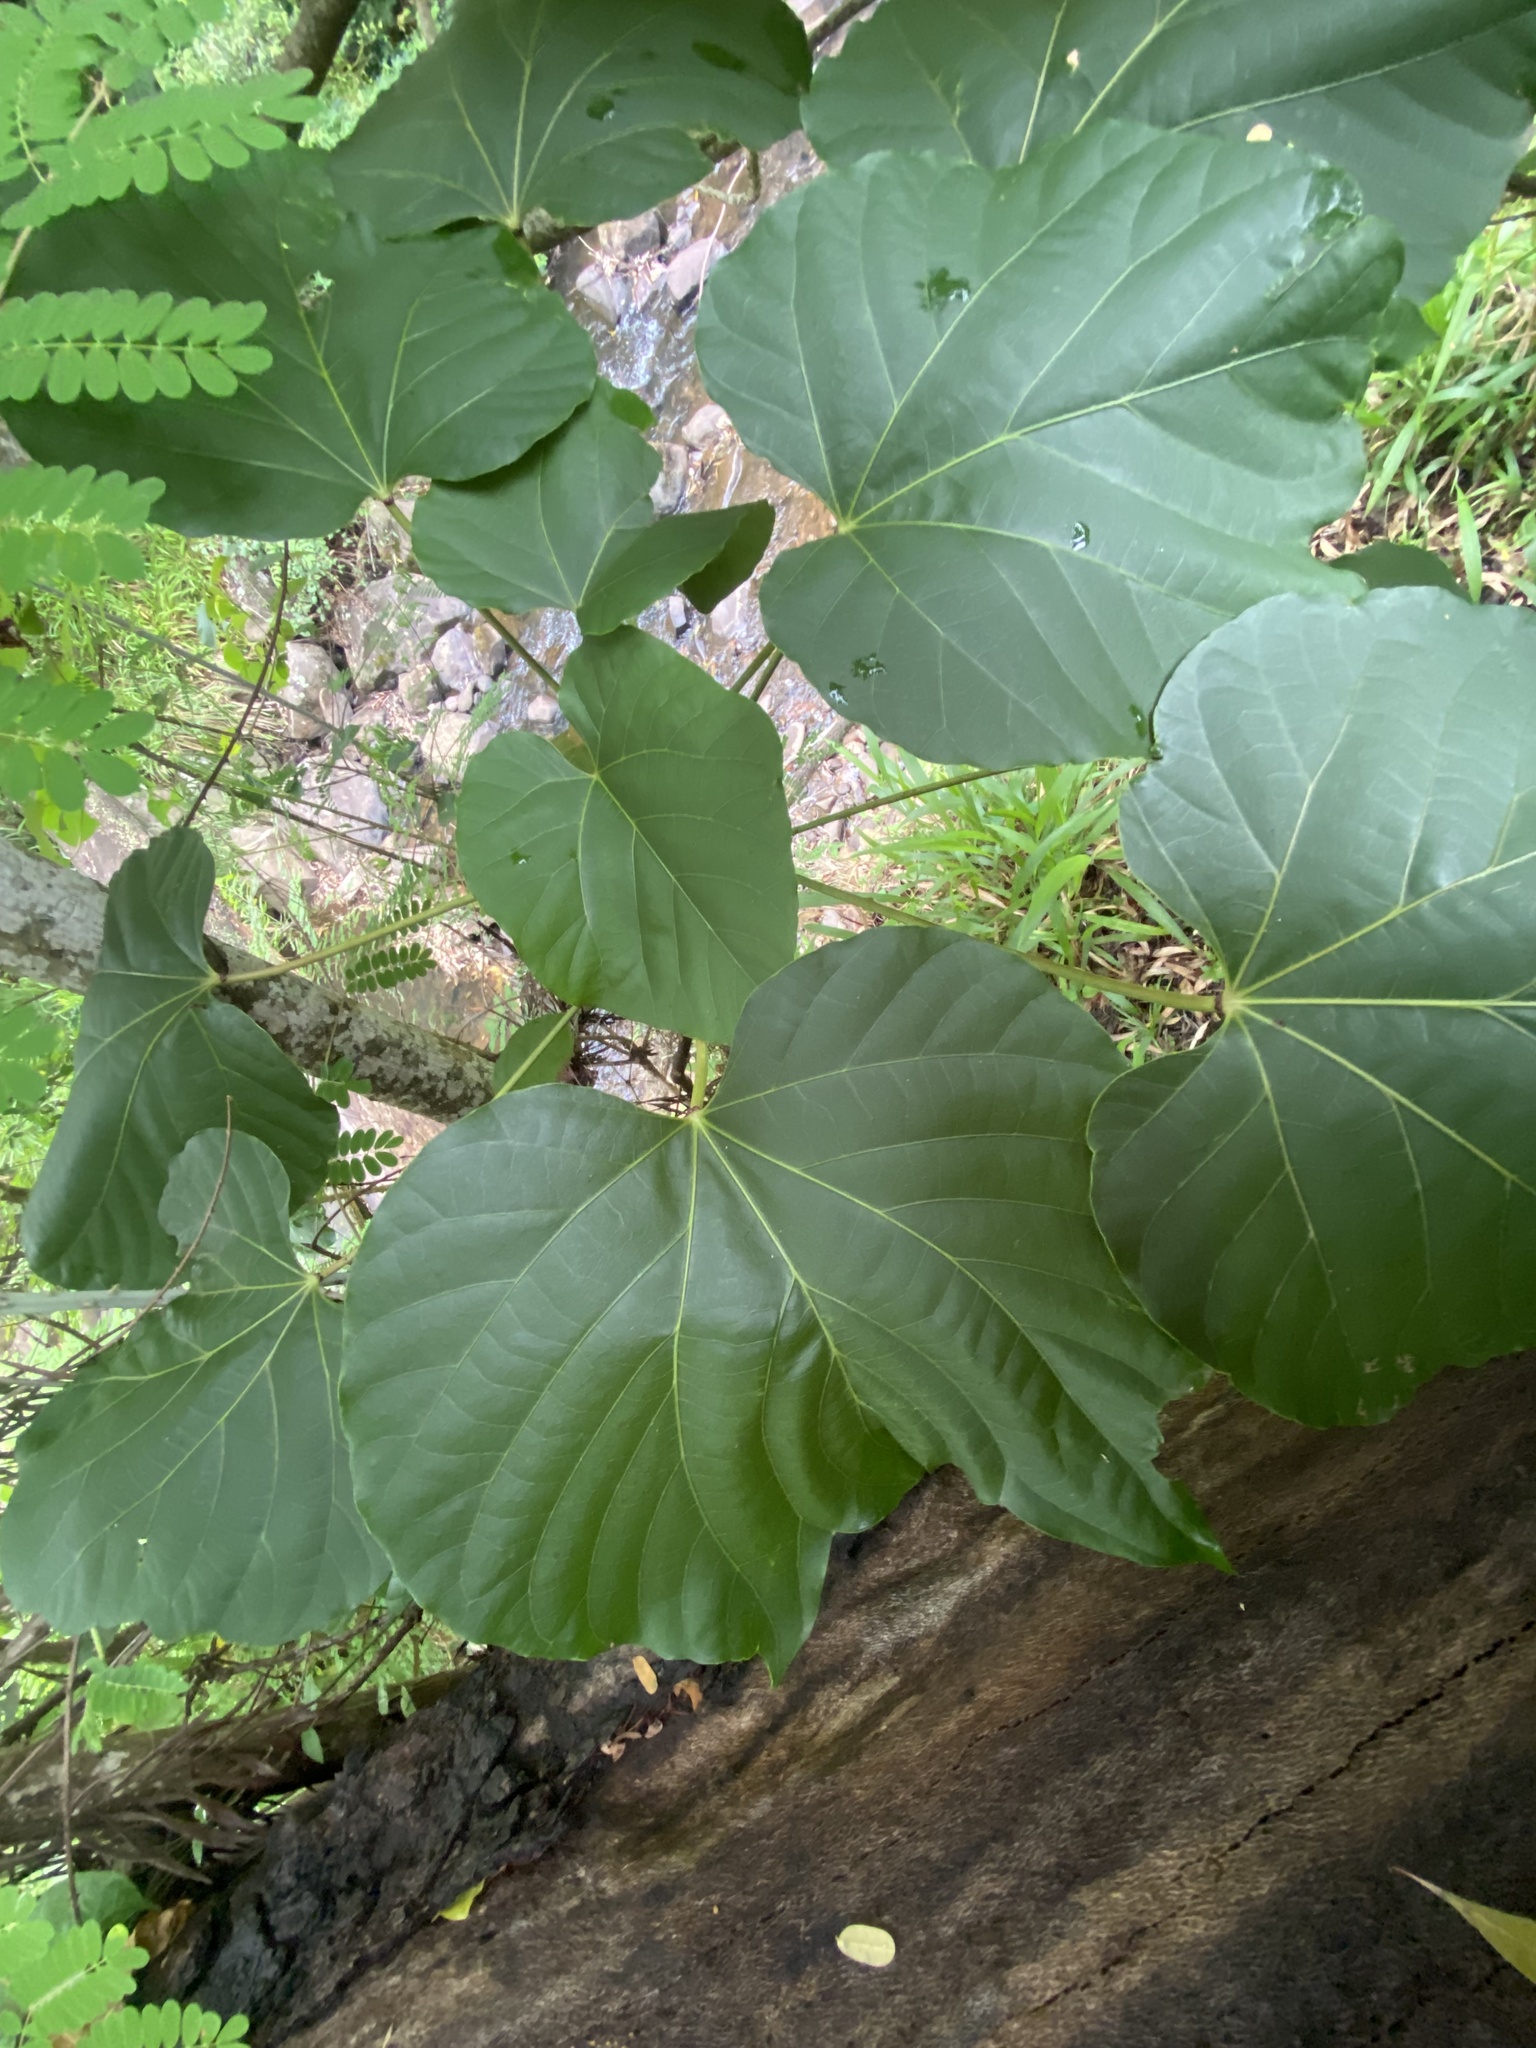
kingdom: Plantae
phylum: Tracheophyta
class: Magnoliopsida
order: Malpighiales
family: Euphorbiaceae
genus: Vernicia
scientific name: Vernicia fordii
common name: Tungoil tree
